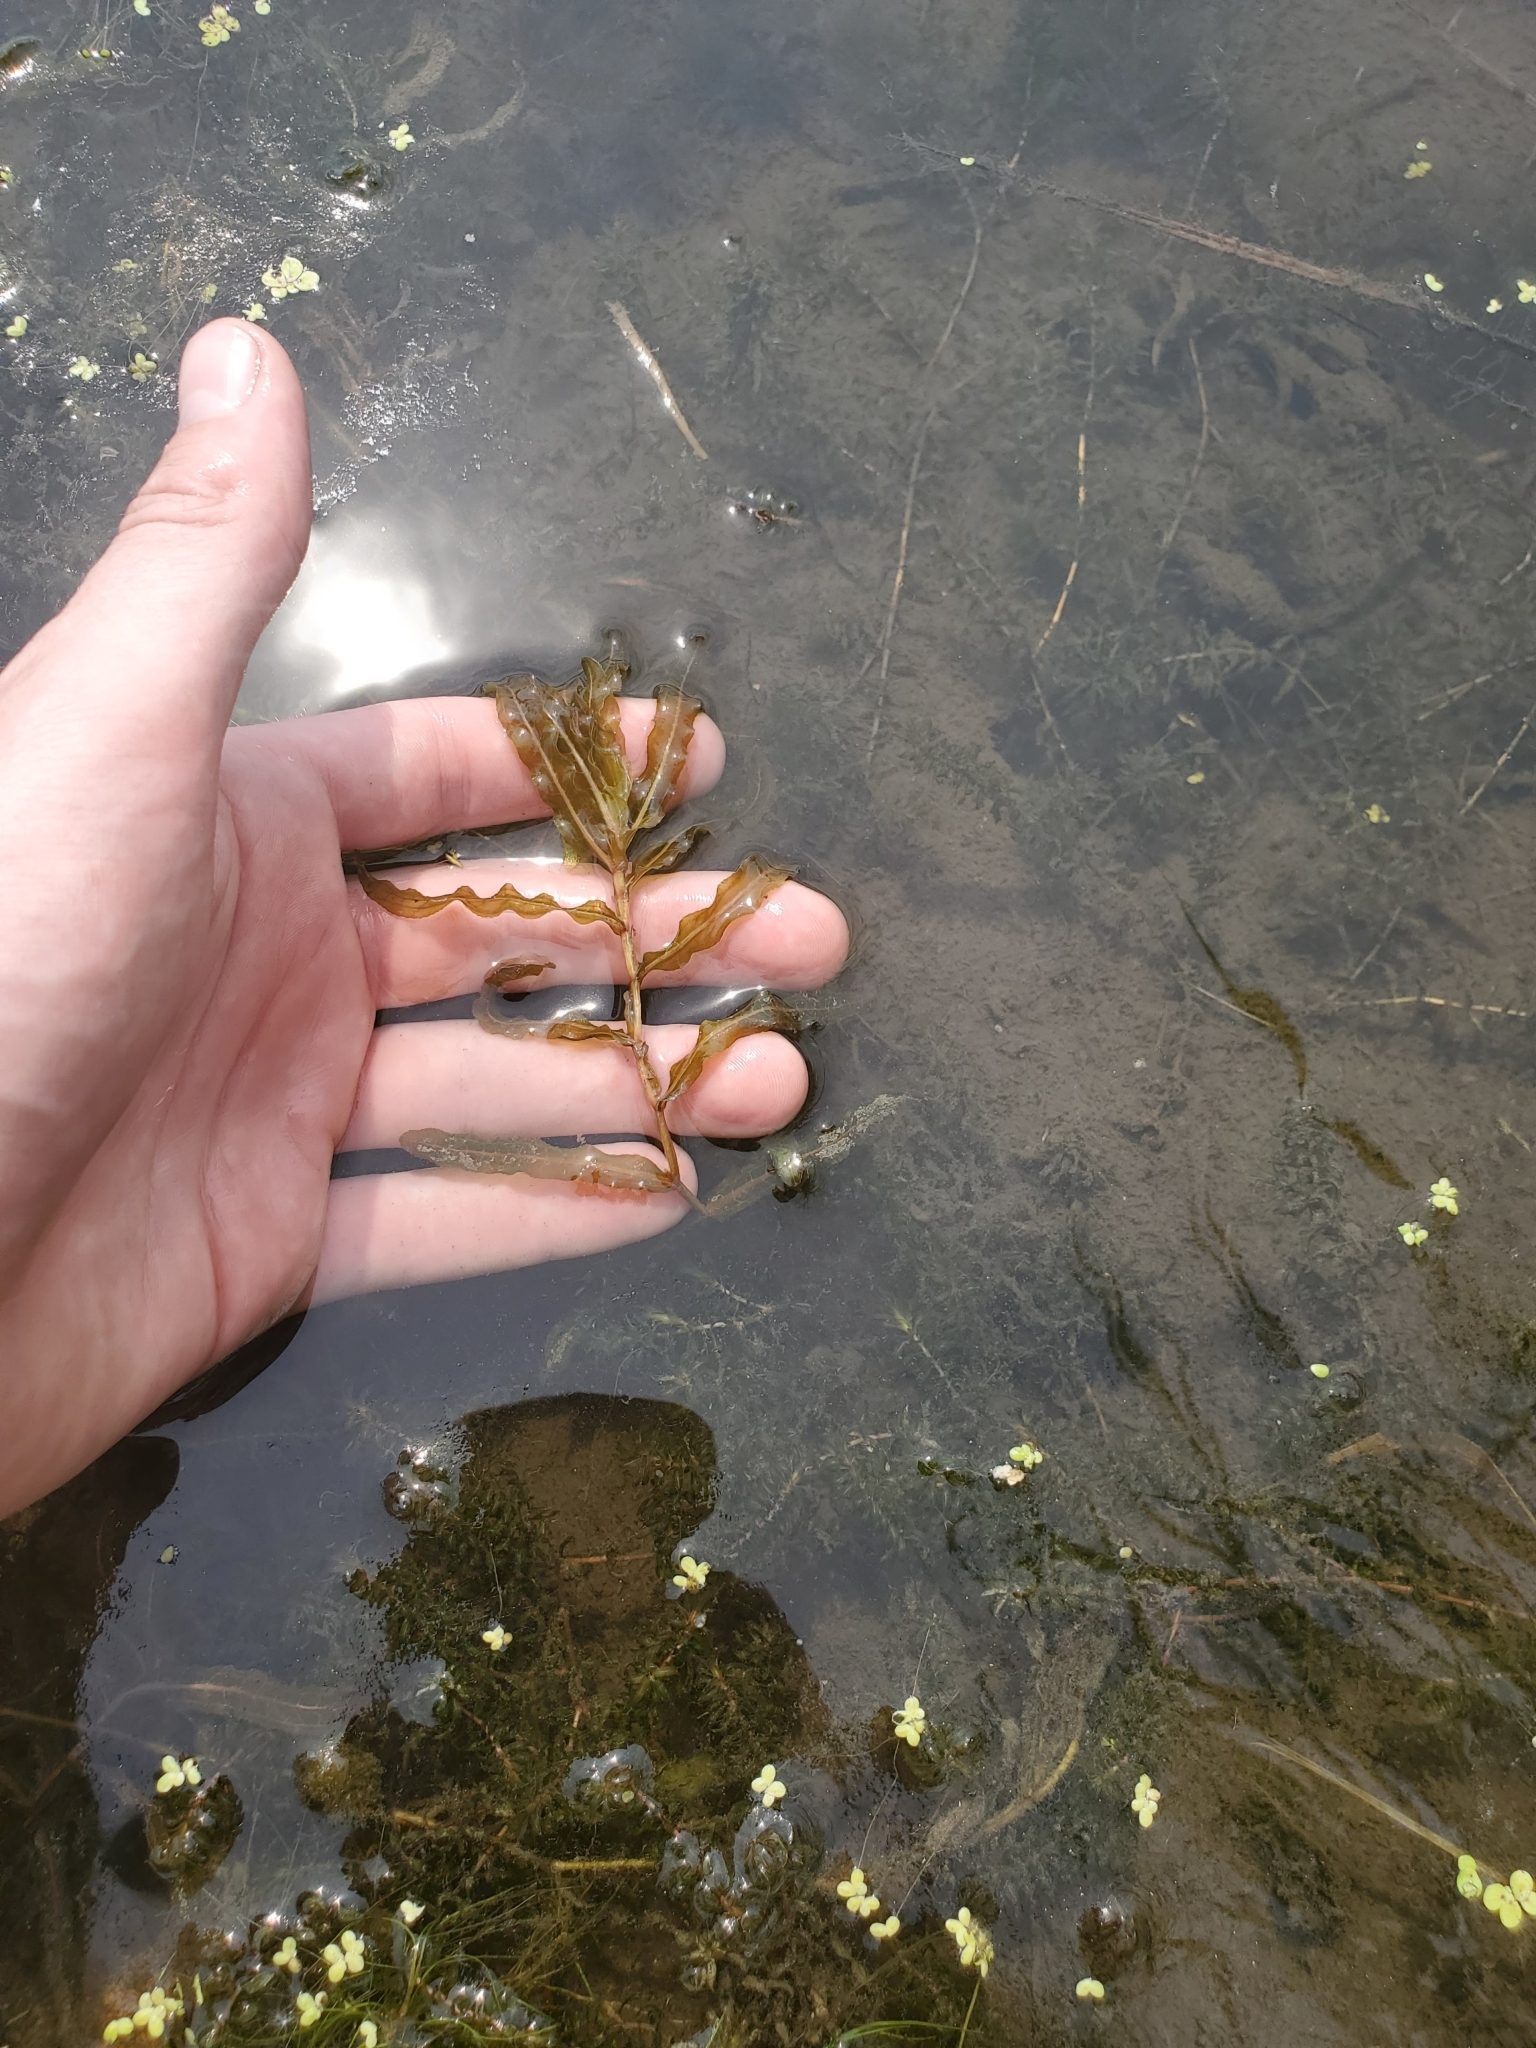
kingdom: Plantae
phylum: Tracheophyta
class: Liliopsida
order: Alismatales
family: Potamogetonaceae
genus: Potamogeton
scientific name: Potamogeton crispus
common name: Curled pondweed
